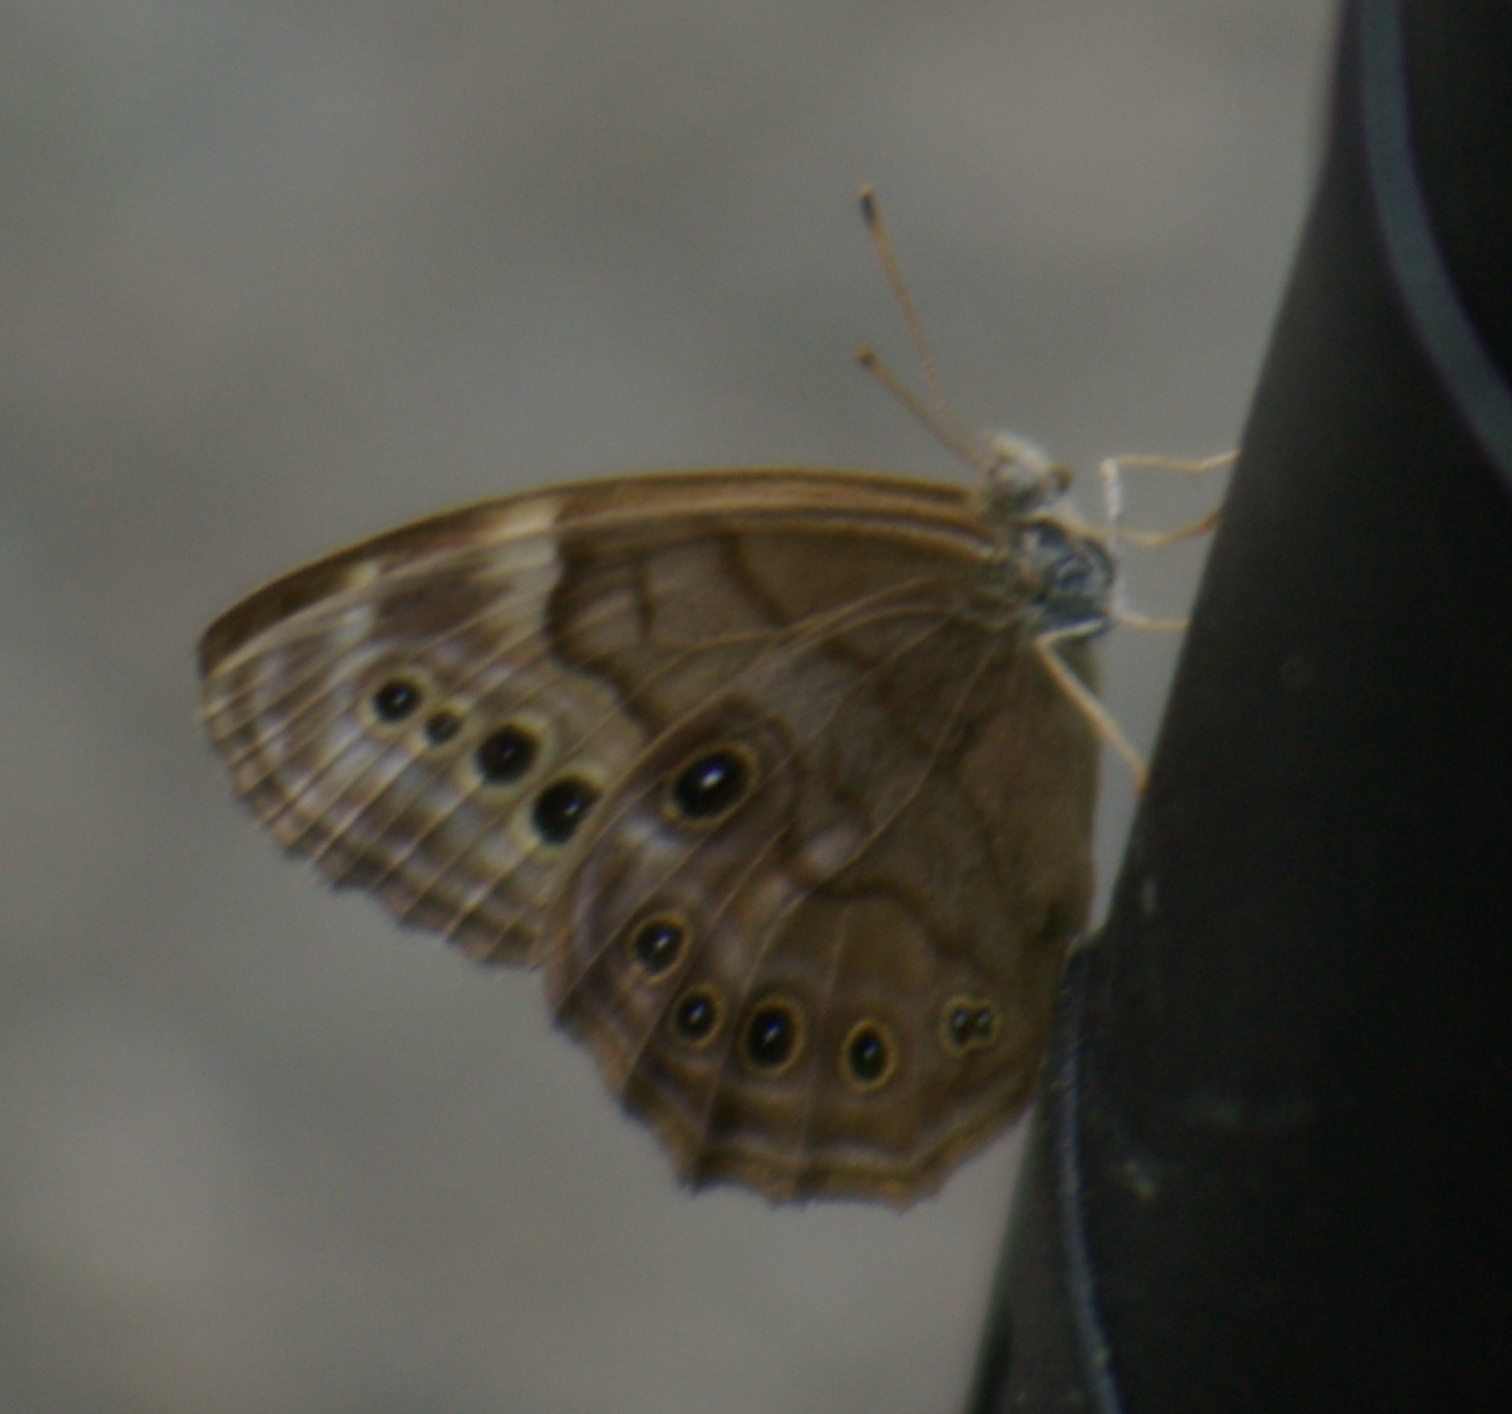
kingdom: Animalia
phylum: Arthropoda
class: Insecta
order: Lepidoptera
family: Nymphalidae
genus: Lethe
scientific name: Lethe anthedon
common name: Northern pearly-eye
